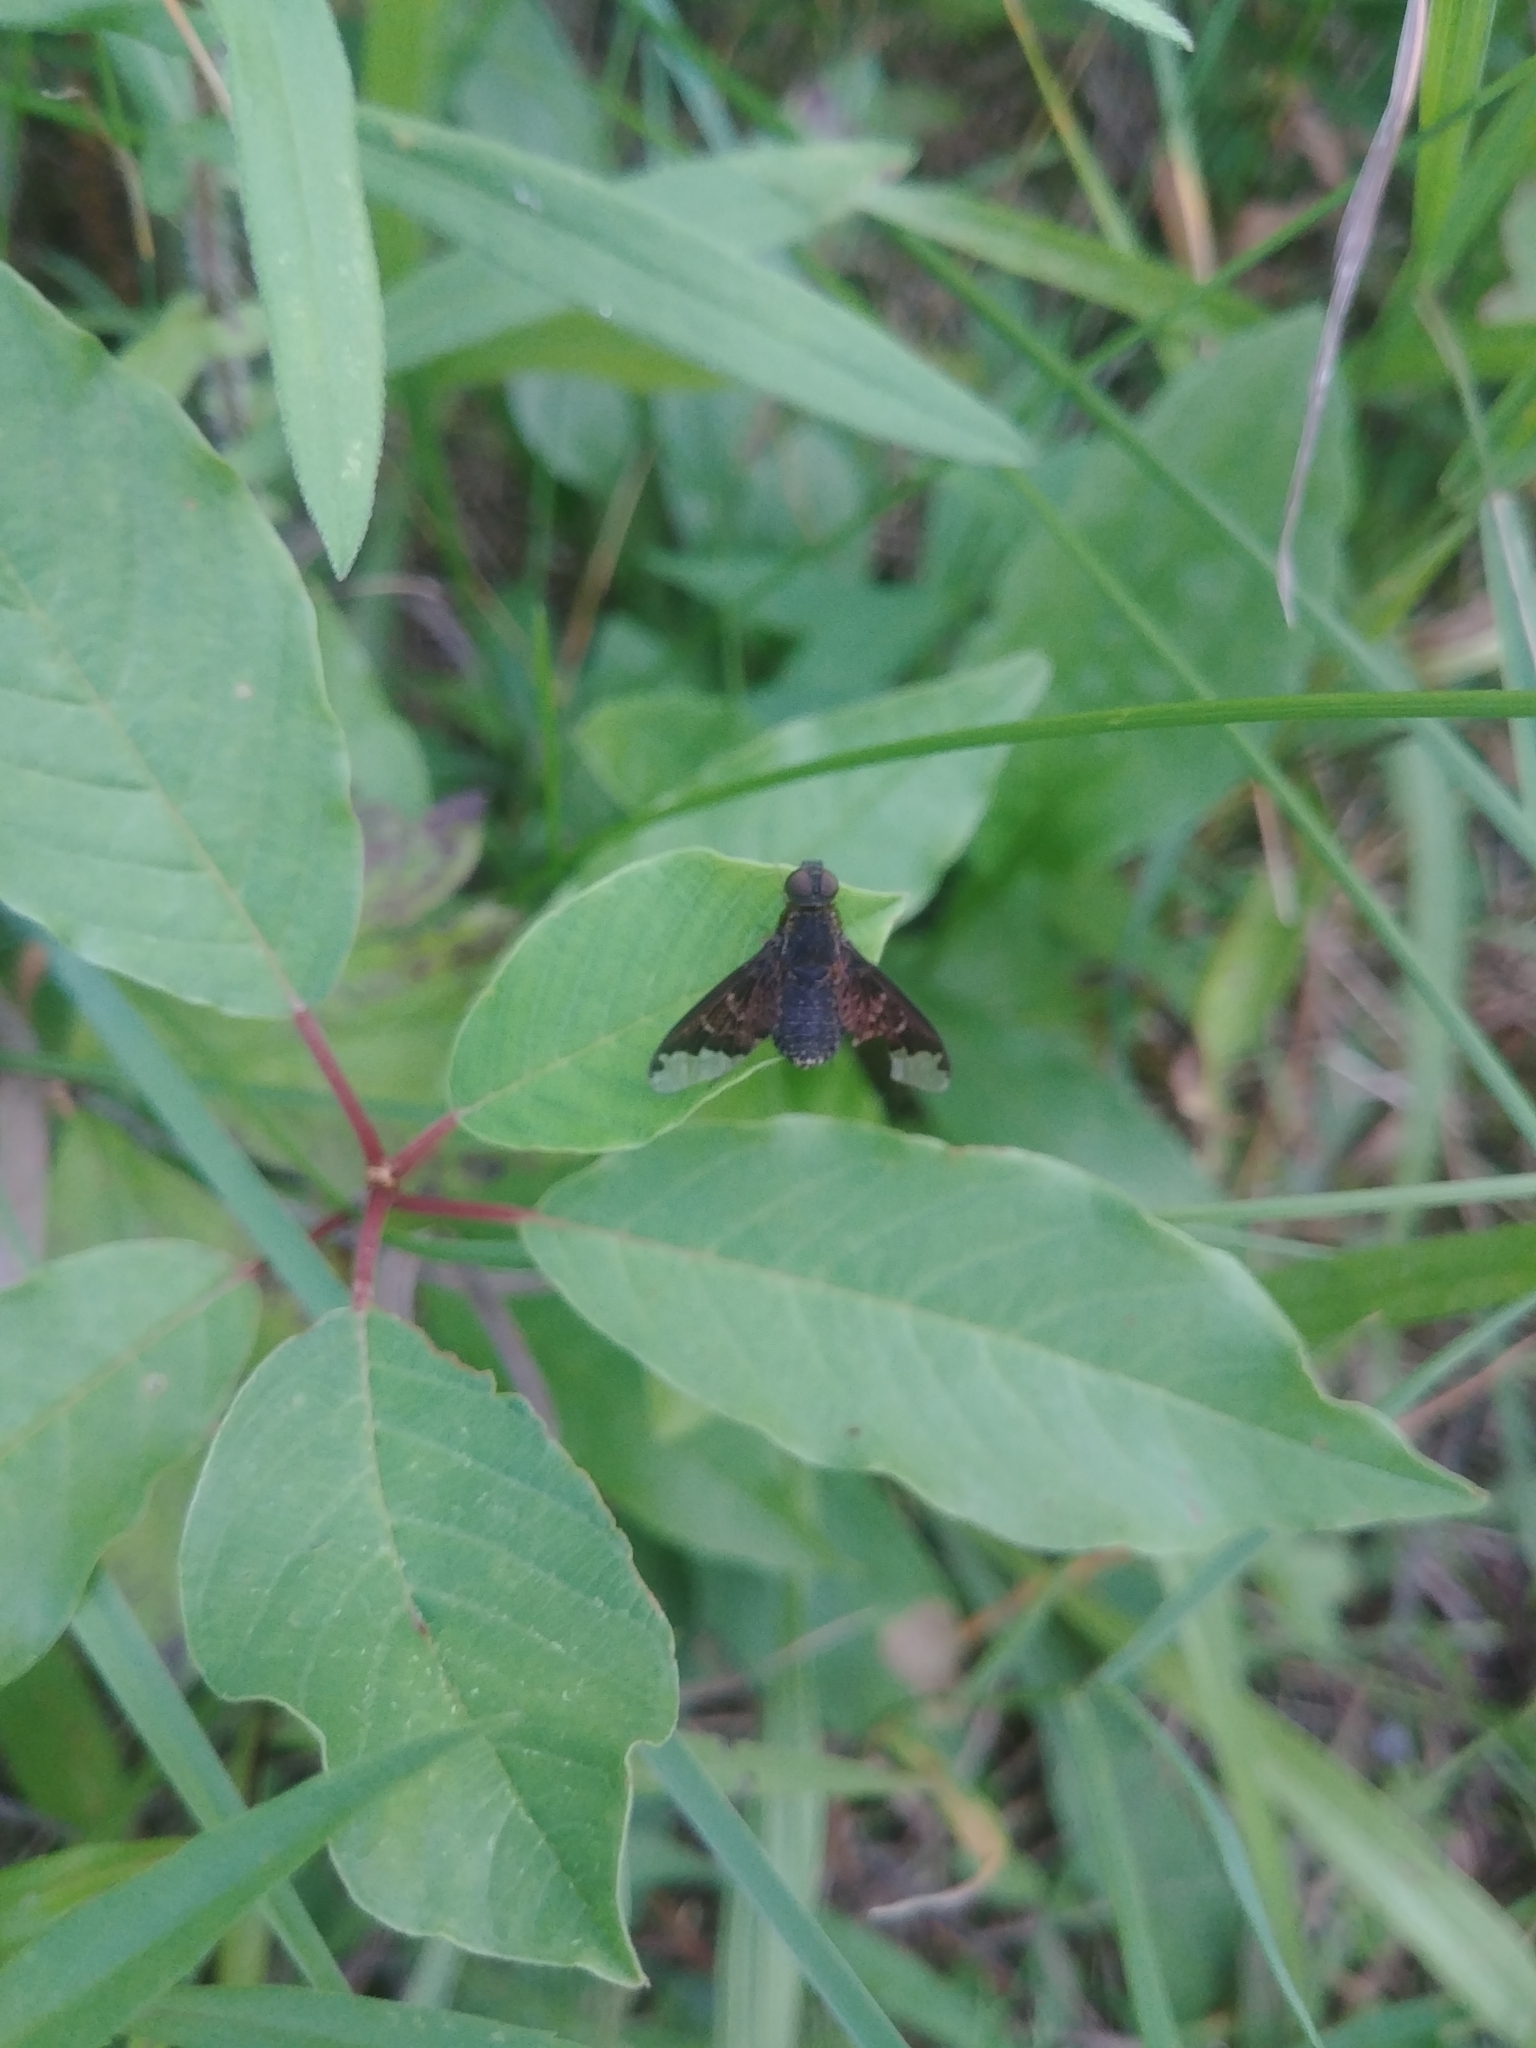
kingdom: Animalia
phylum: Arthropoda
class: Insecta
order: Diptera
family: Bombyliidae
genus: Hemipenthes
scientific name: Hemipenthes sinuosus
